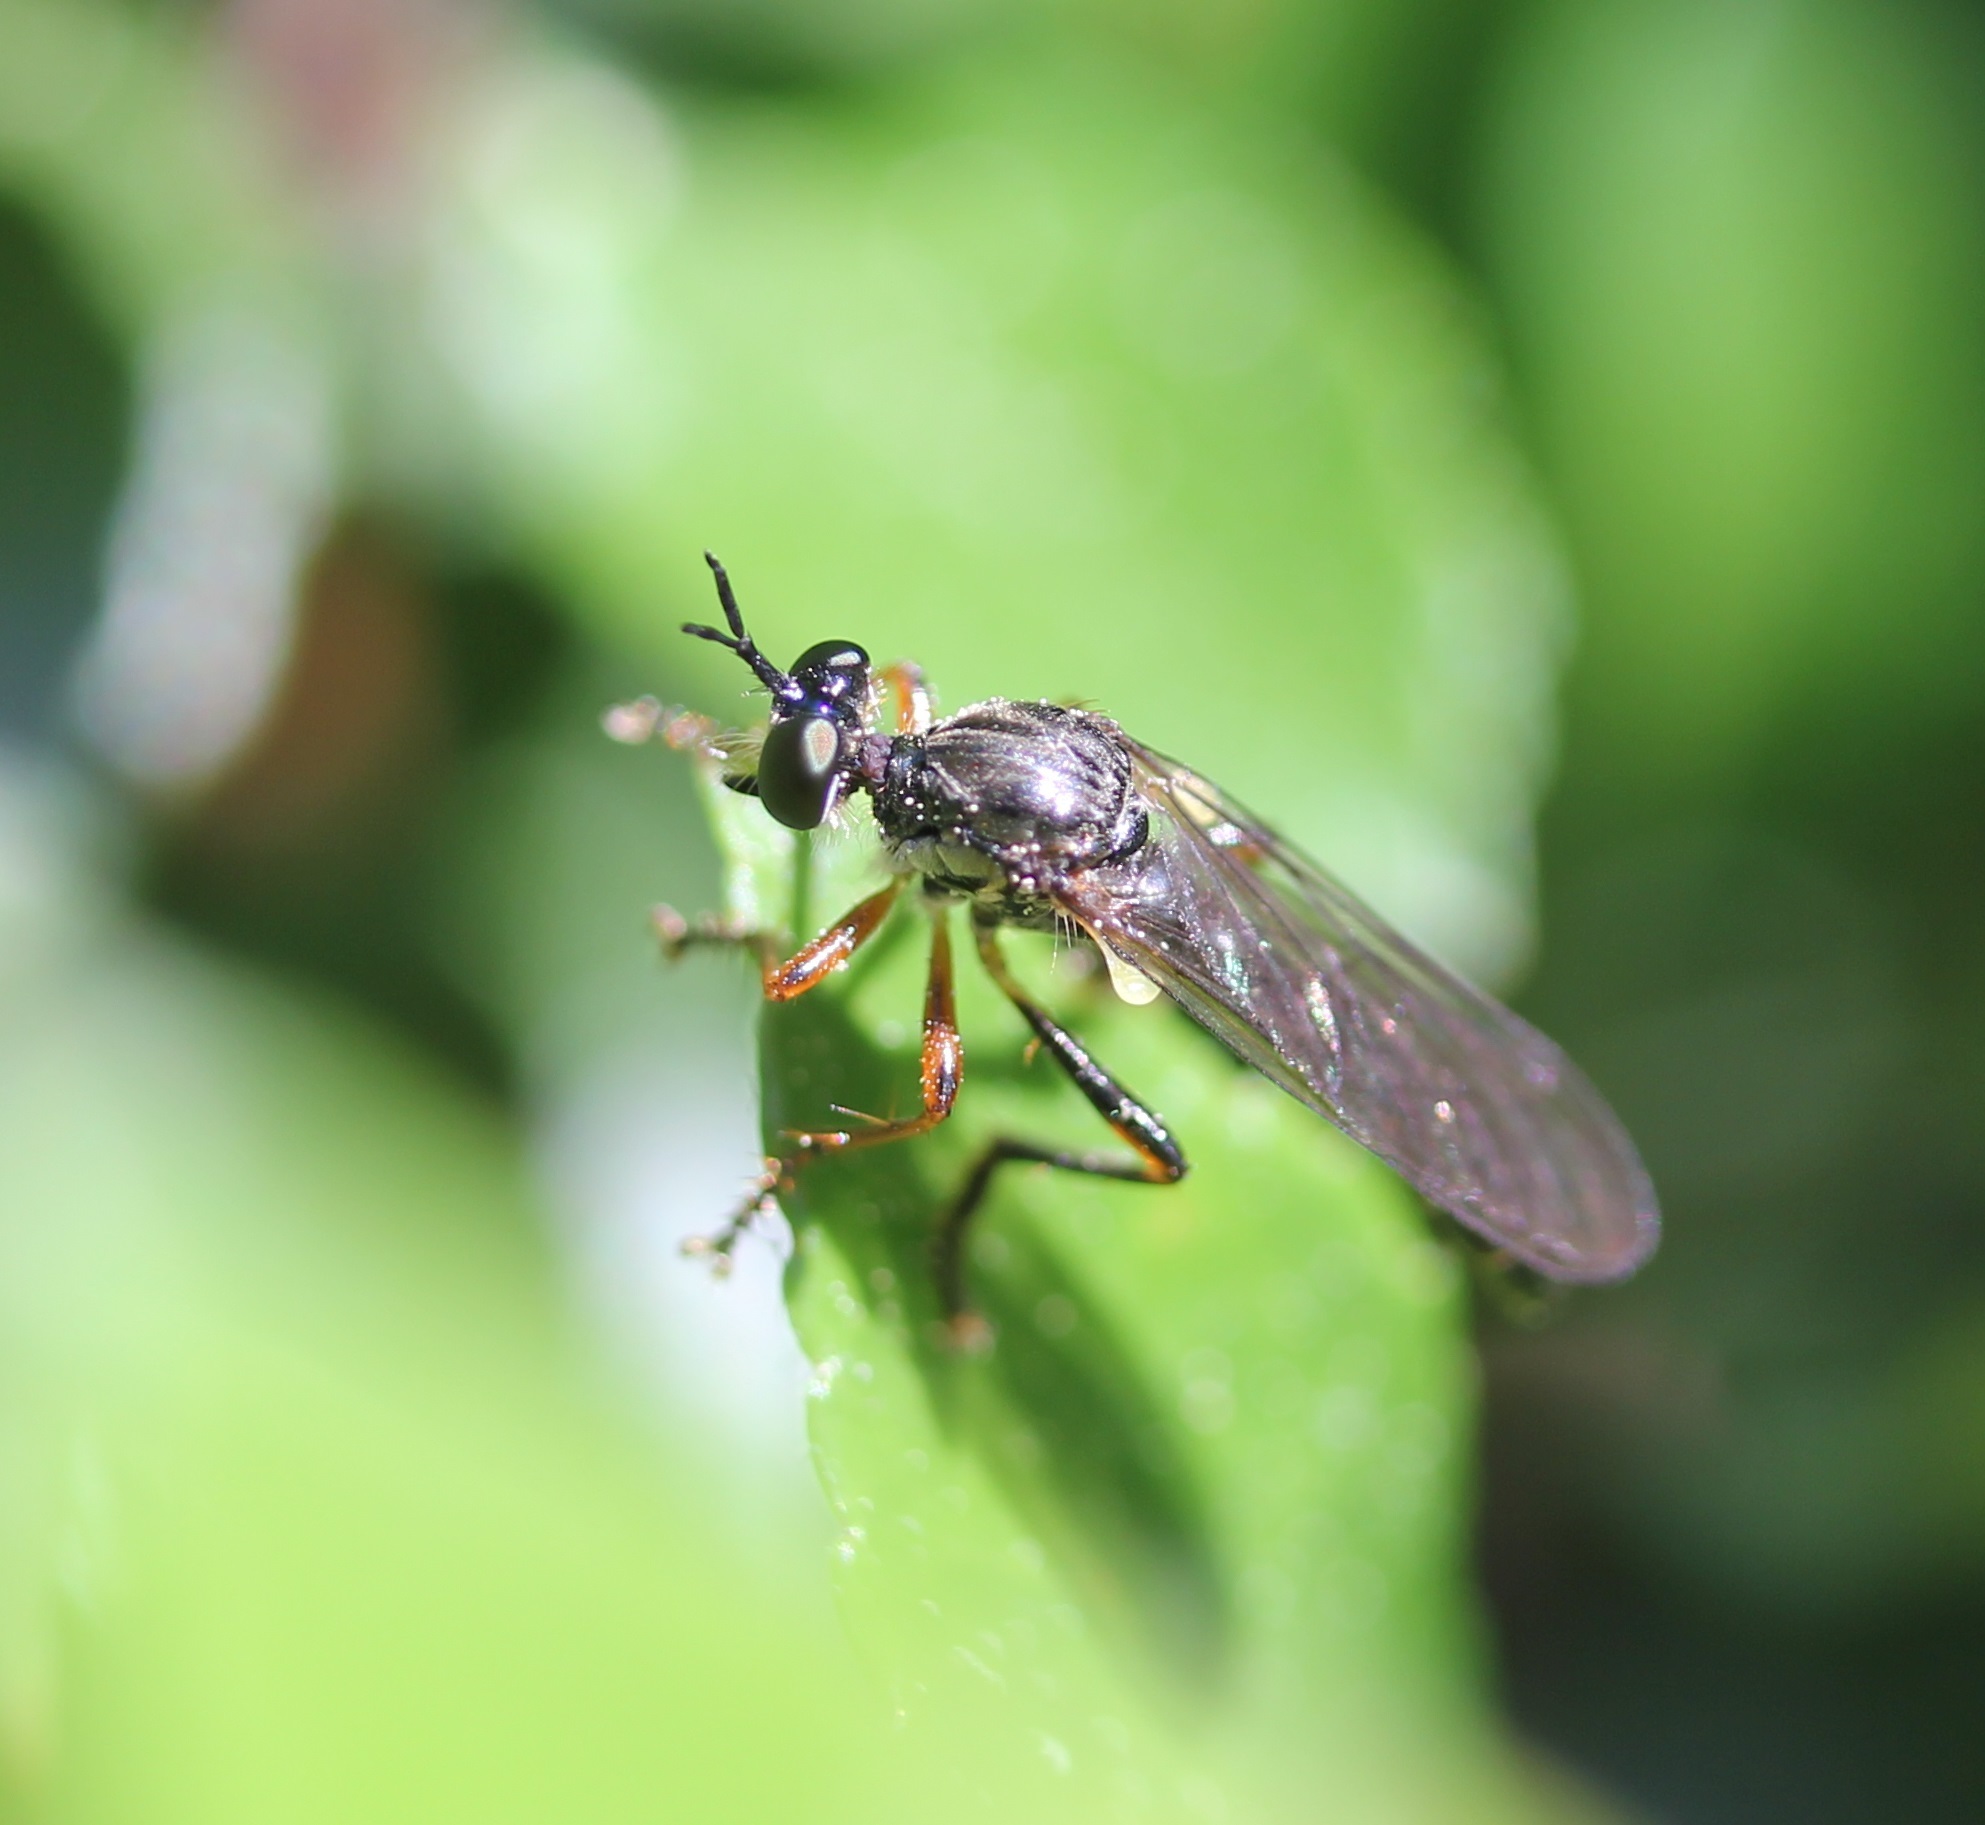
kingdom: Animalia
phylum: Arthropoda
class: Insecta
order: Diptera
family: Asilidae
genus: Dioctria
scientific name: Dioctria hyalipennis
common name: Stripe-legged robberfly
